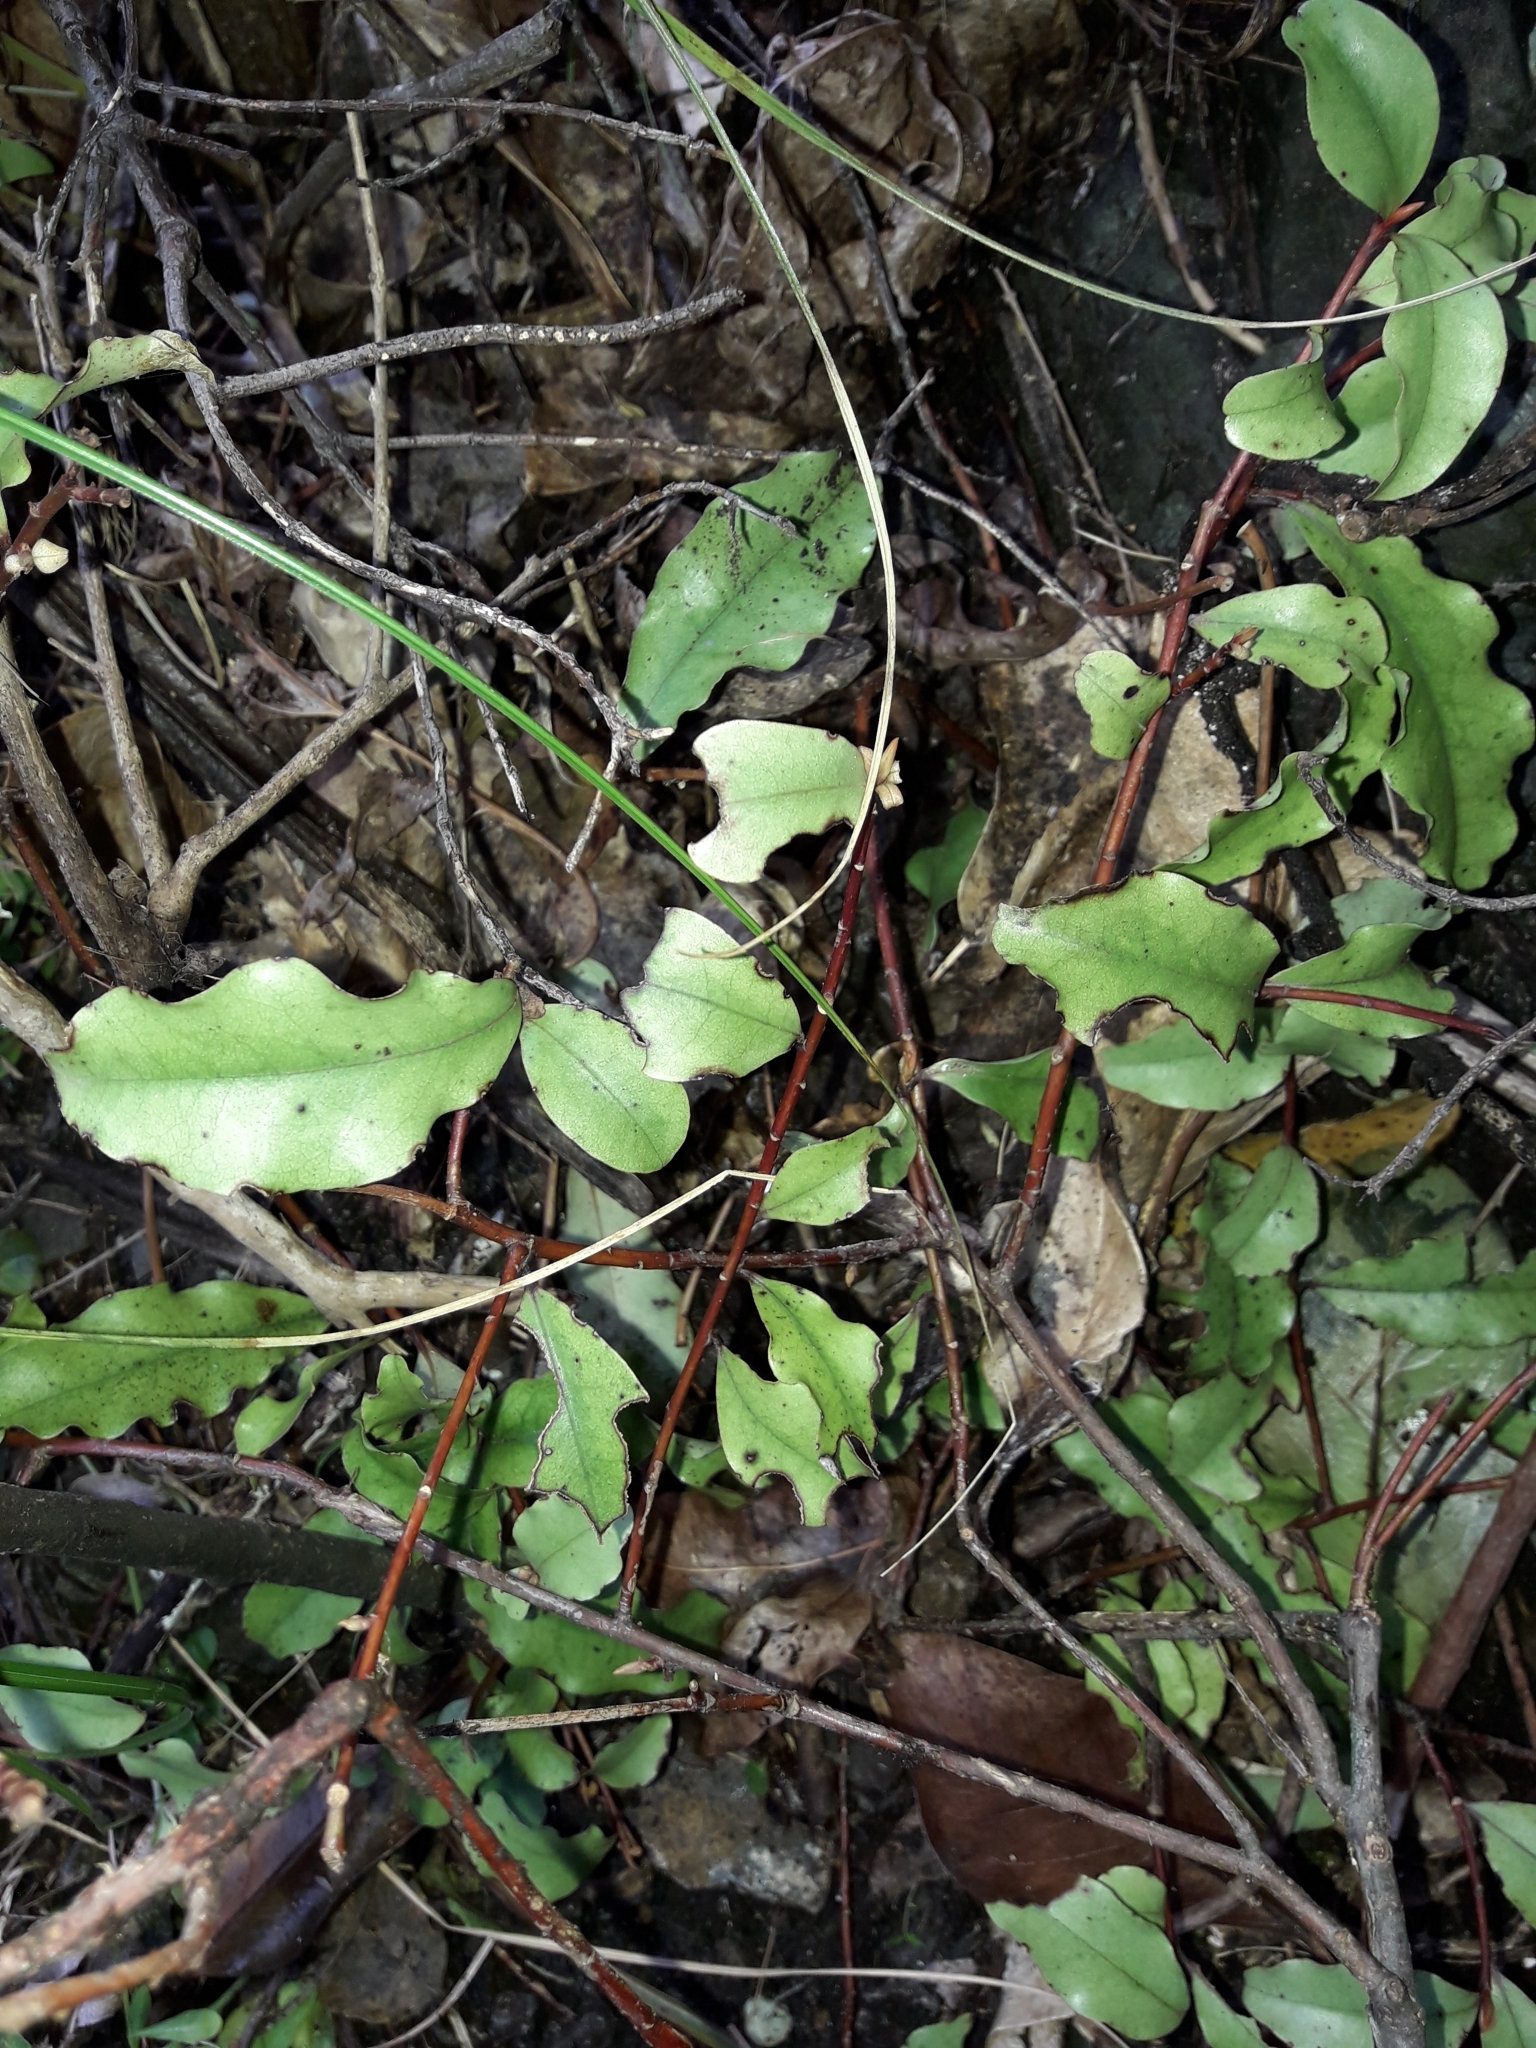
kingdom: Plantae
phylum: Tracheophyta
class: Magnoliopsida
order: Ericales
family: Primulaceae
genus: Myrsine
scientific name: Myrsine australis
